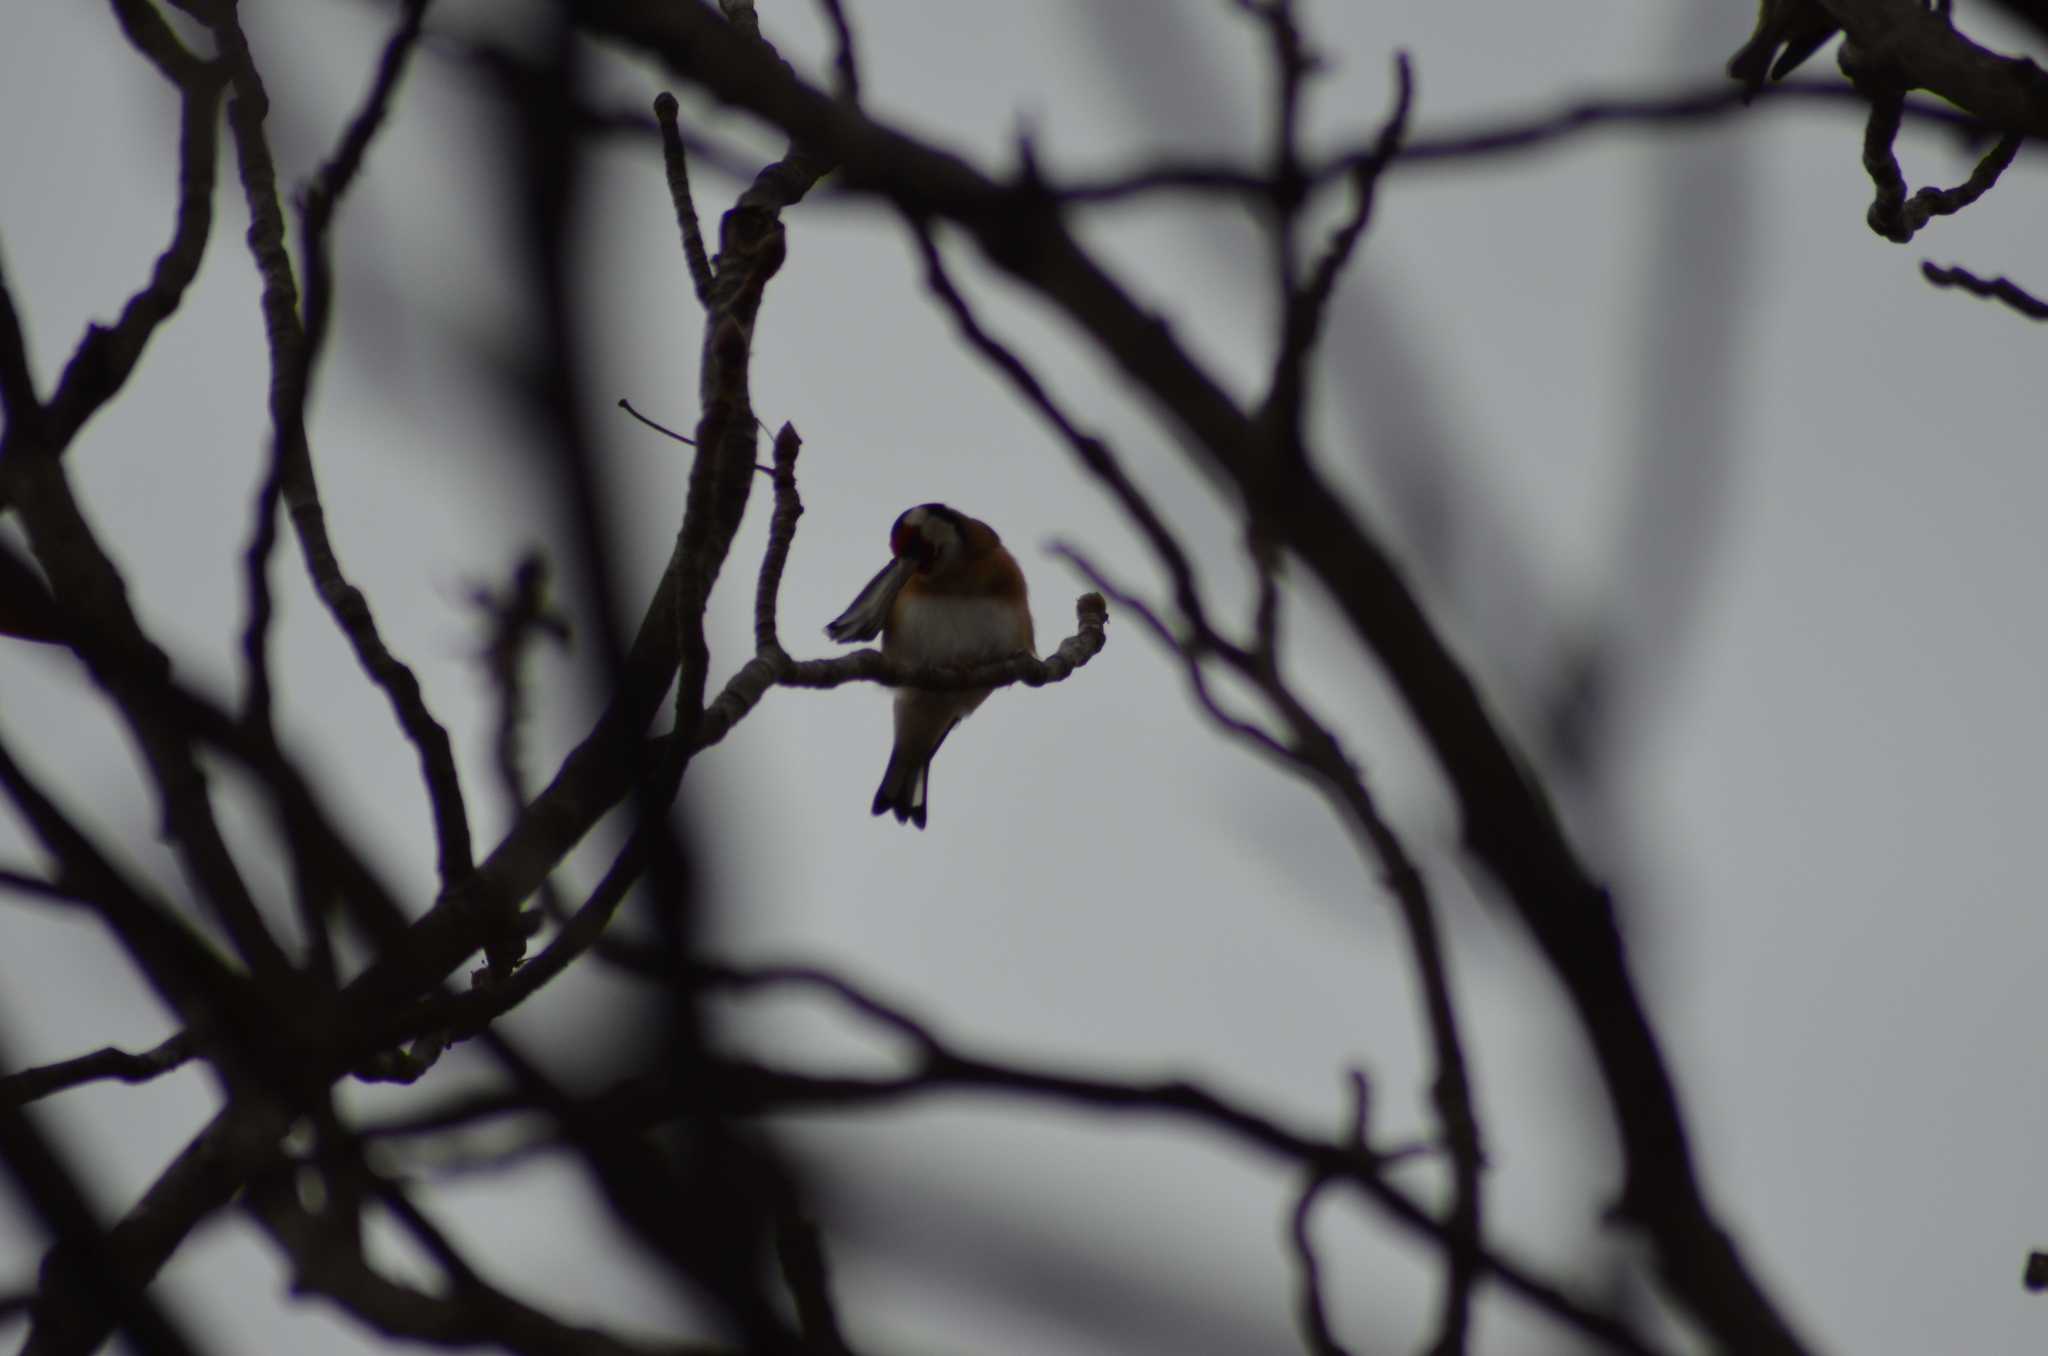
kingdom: Animalia
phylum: Chordata
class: Aves
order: Passeriformes
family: Fringillidae
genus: Carduelis
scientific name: Carduelis carduelis
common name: European goldfinch
